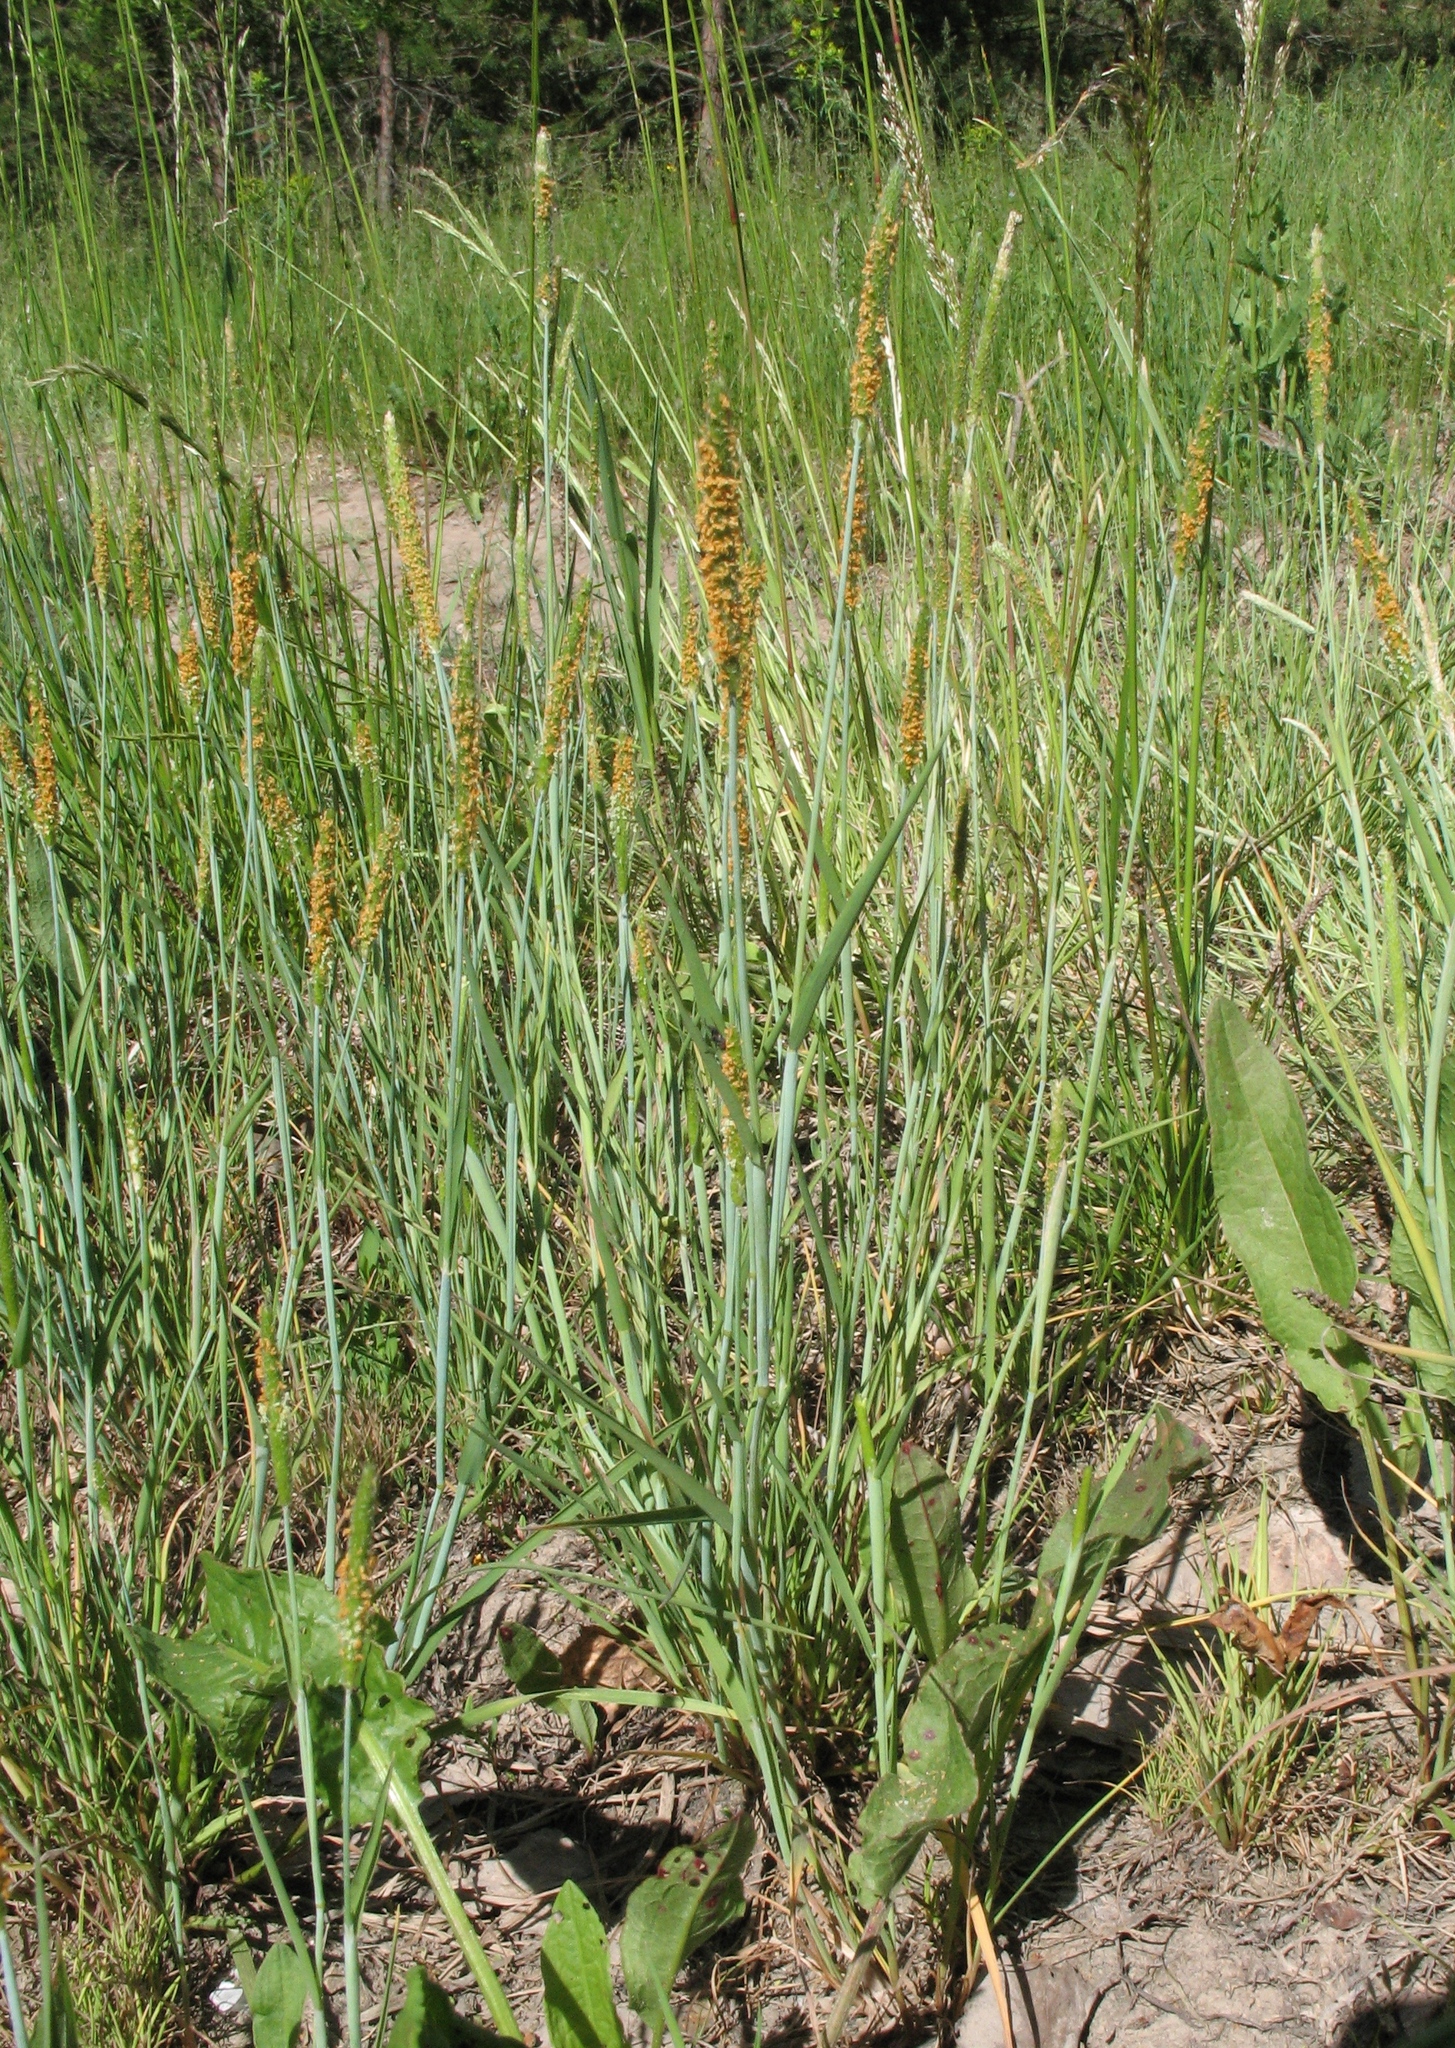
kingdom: Plantae
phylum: Tracheophyta
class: Liliopsida
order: Poales
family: Poaceae
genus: Alopecurus
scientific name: Alopecurus aequalis
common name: Orange foxtail
